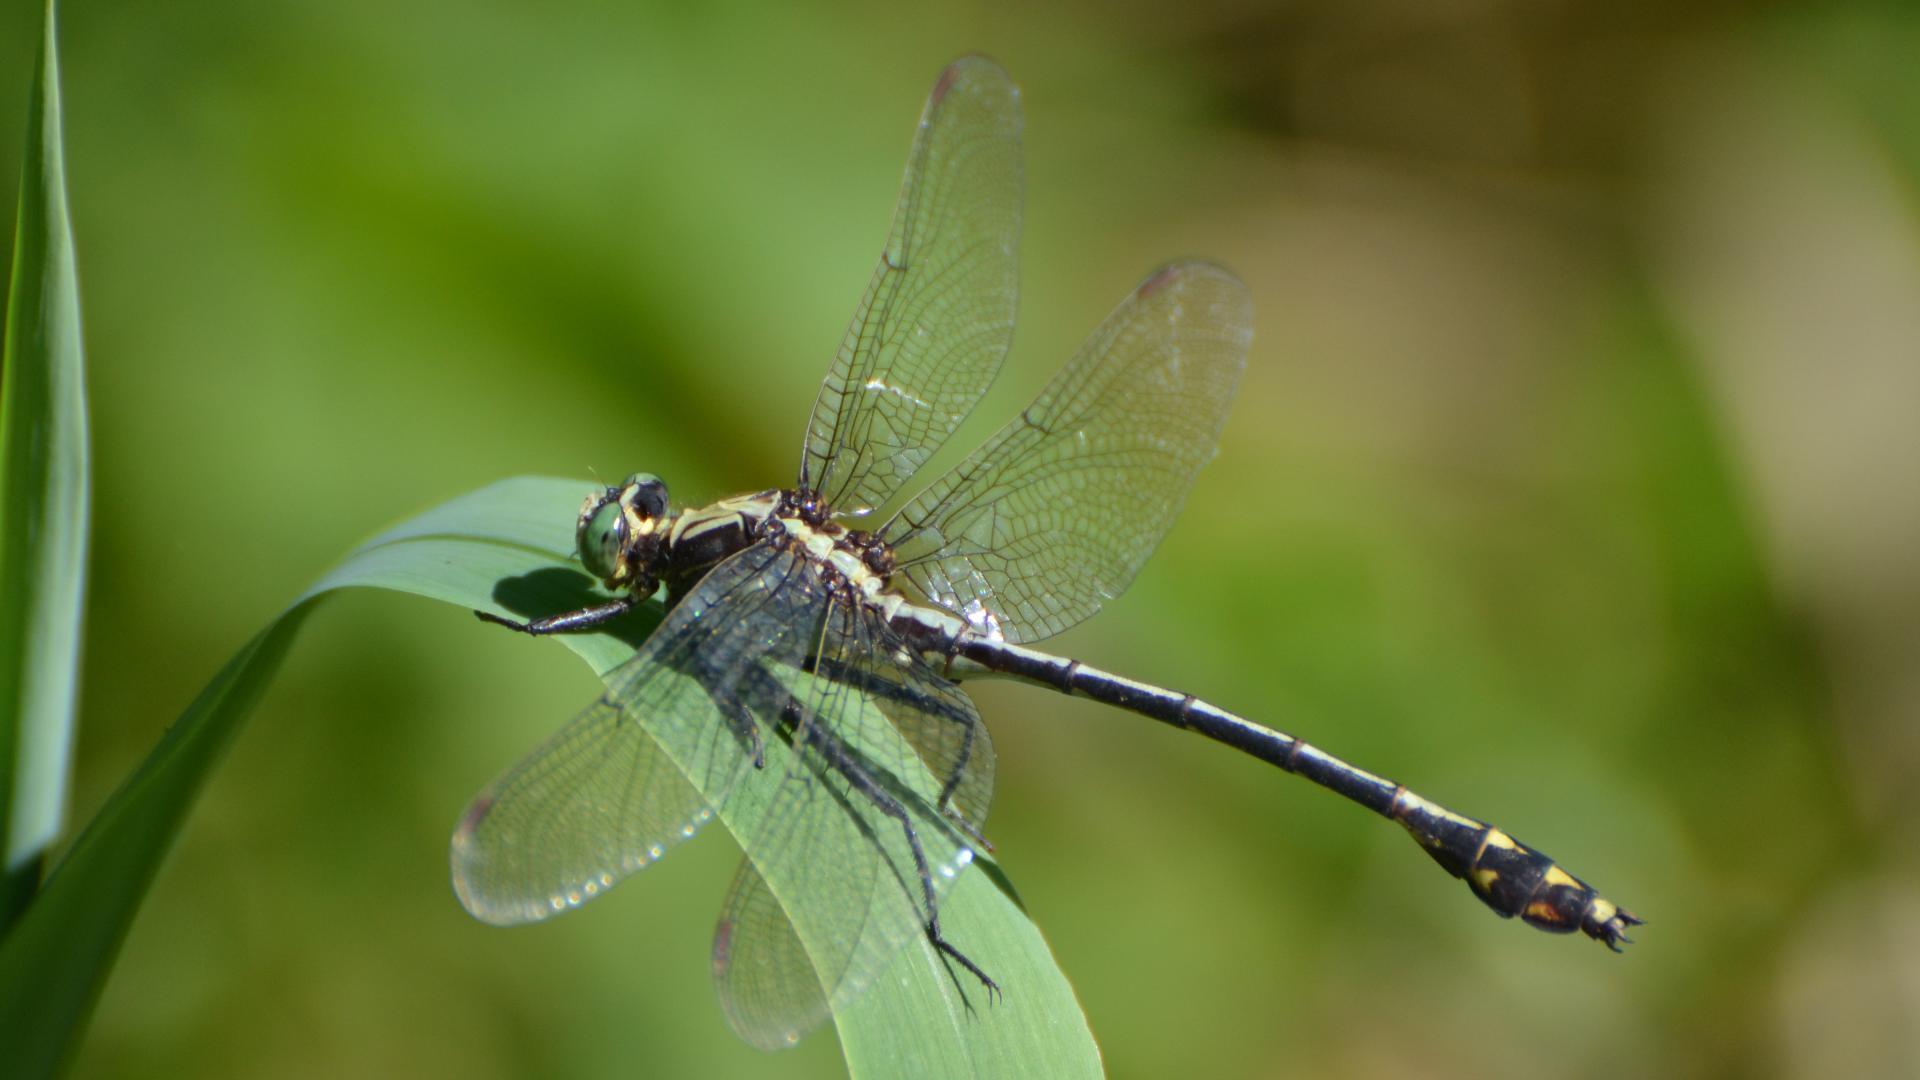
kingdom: Animalia
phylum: Arthropoda
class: Insecta
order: Odonata
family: Gomphidae
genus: Dromogomphus
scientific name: Dromogomphus spinosus
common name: Black-shouldered spinyleg
